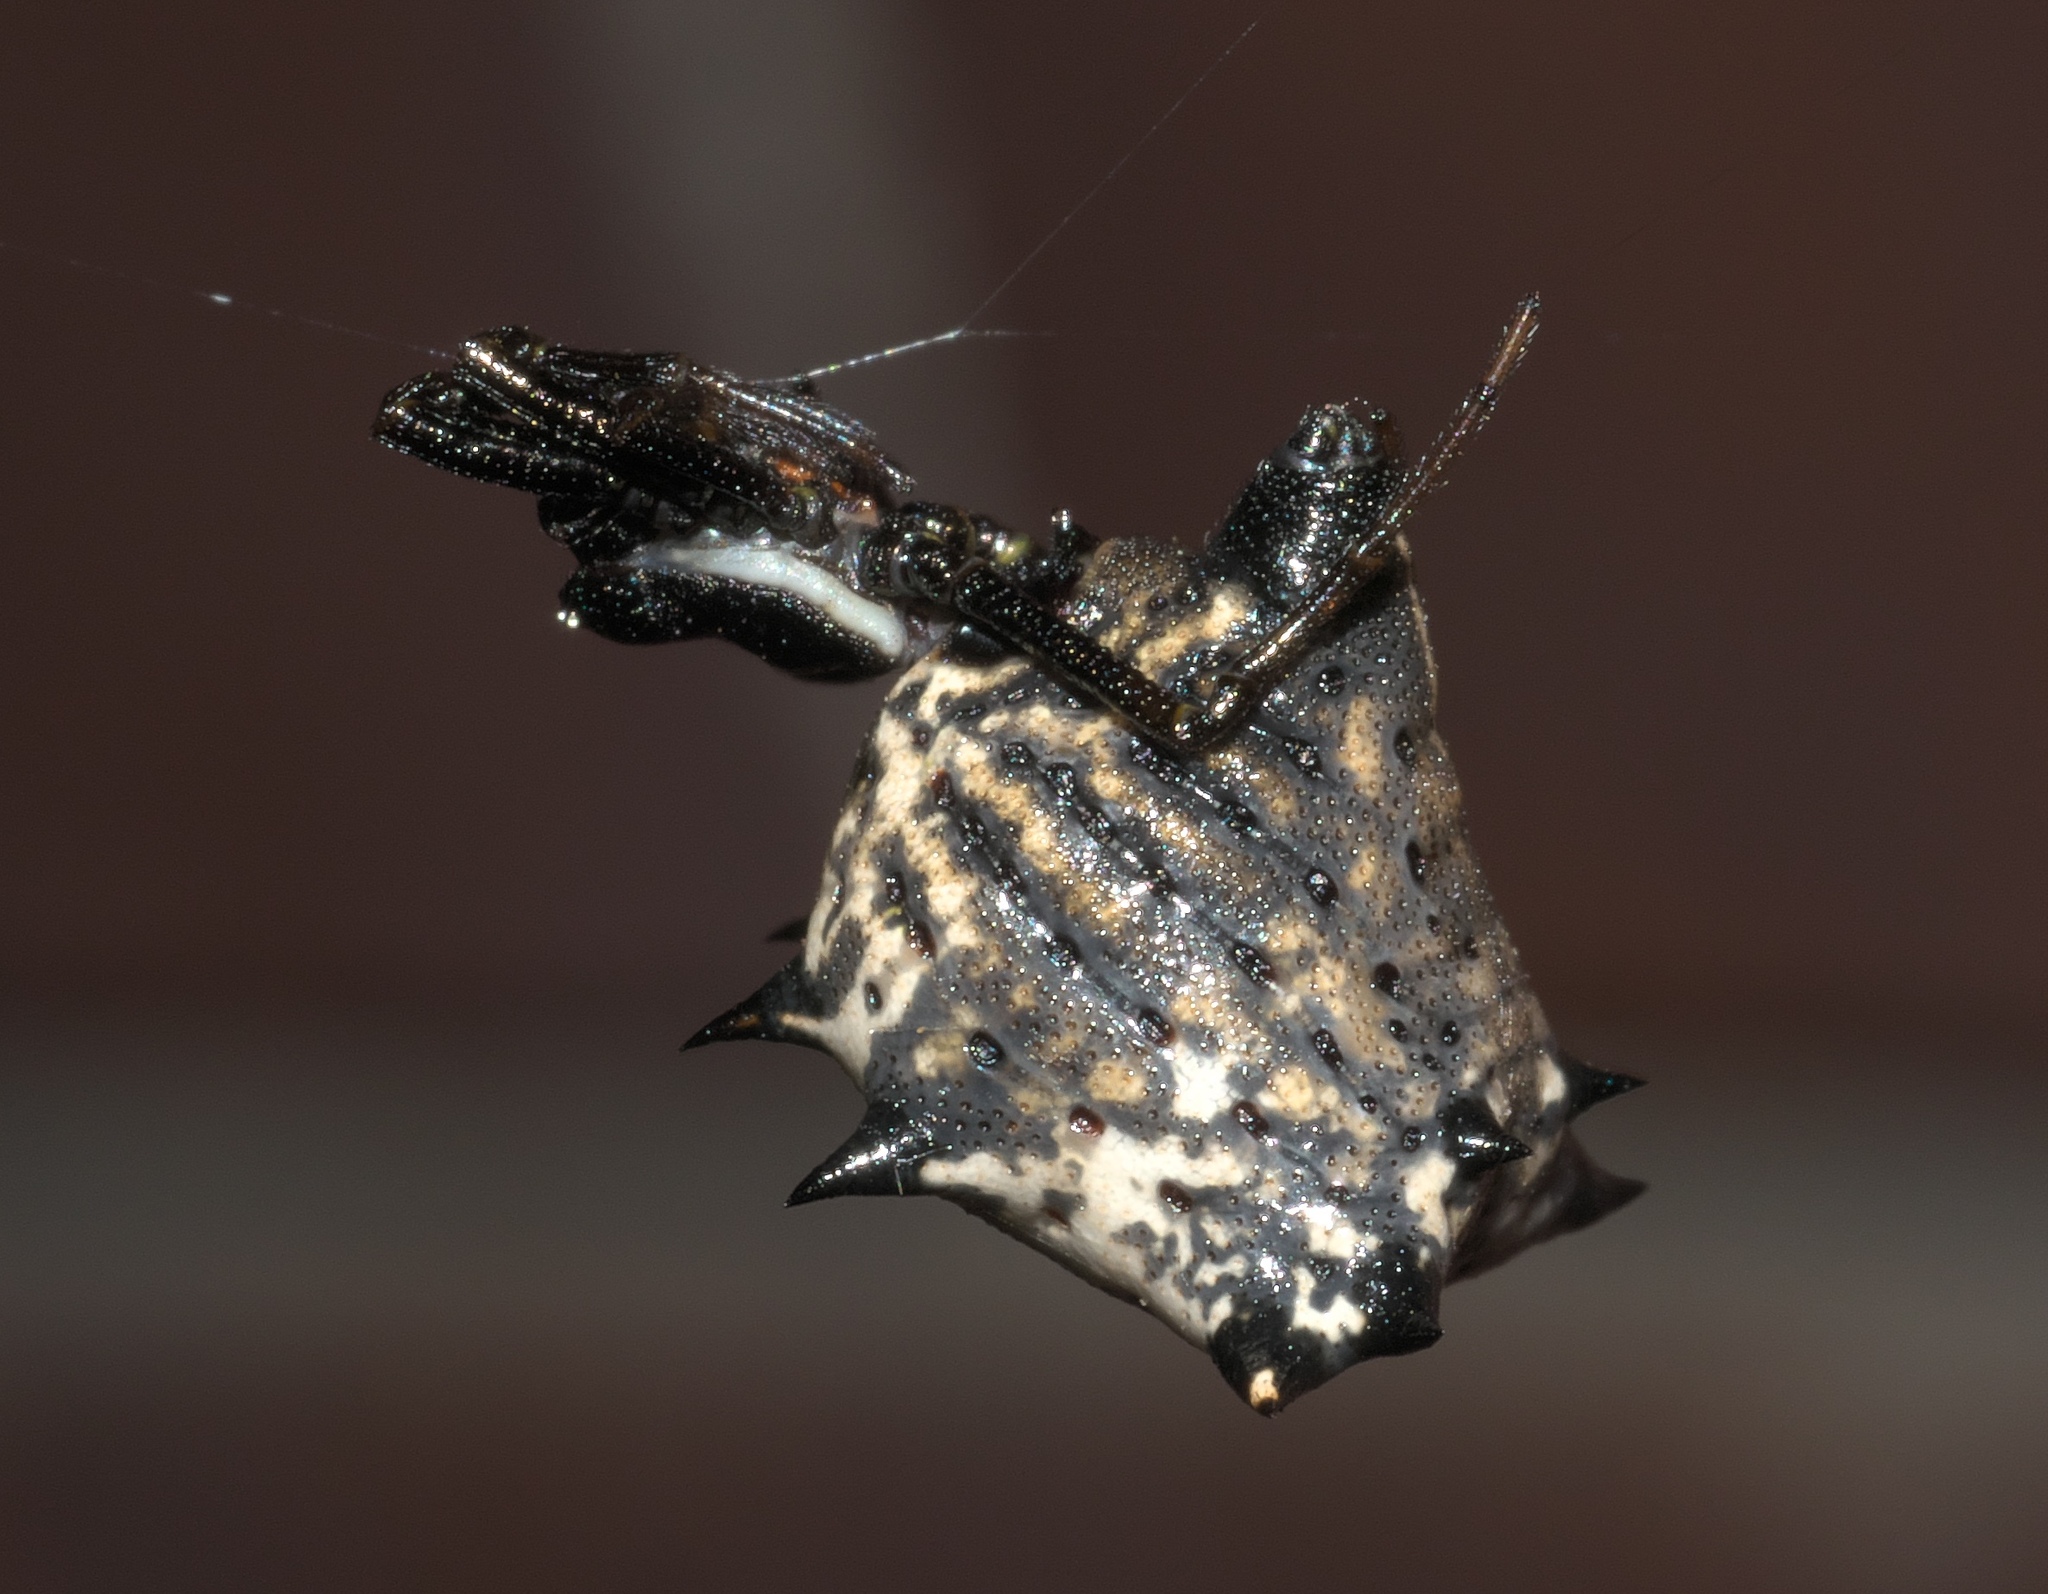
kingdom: Animalia
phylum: Arthropoda
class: Arachnida
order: Araneae
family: Araneidae
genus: Micrathena
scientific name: Micrathena gracilis
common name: Orb weavers
